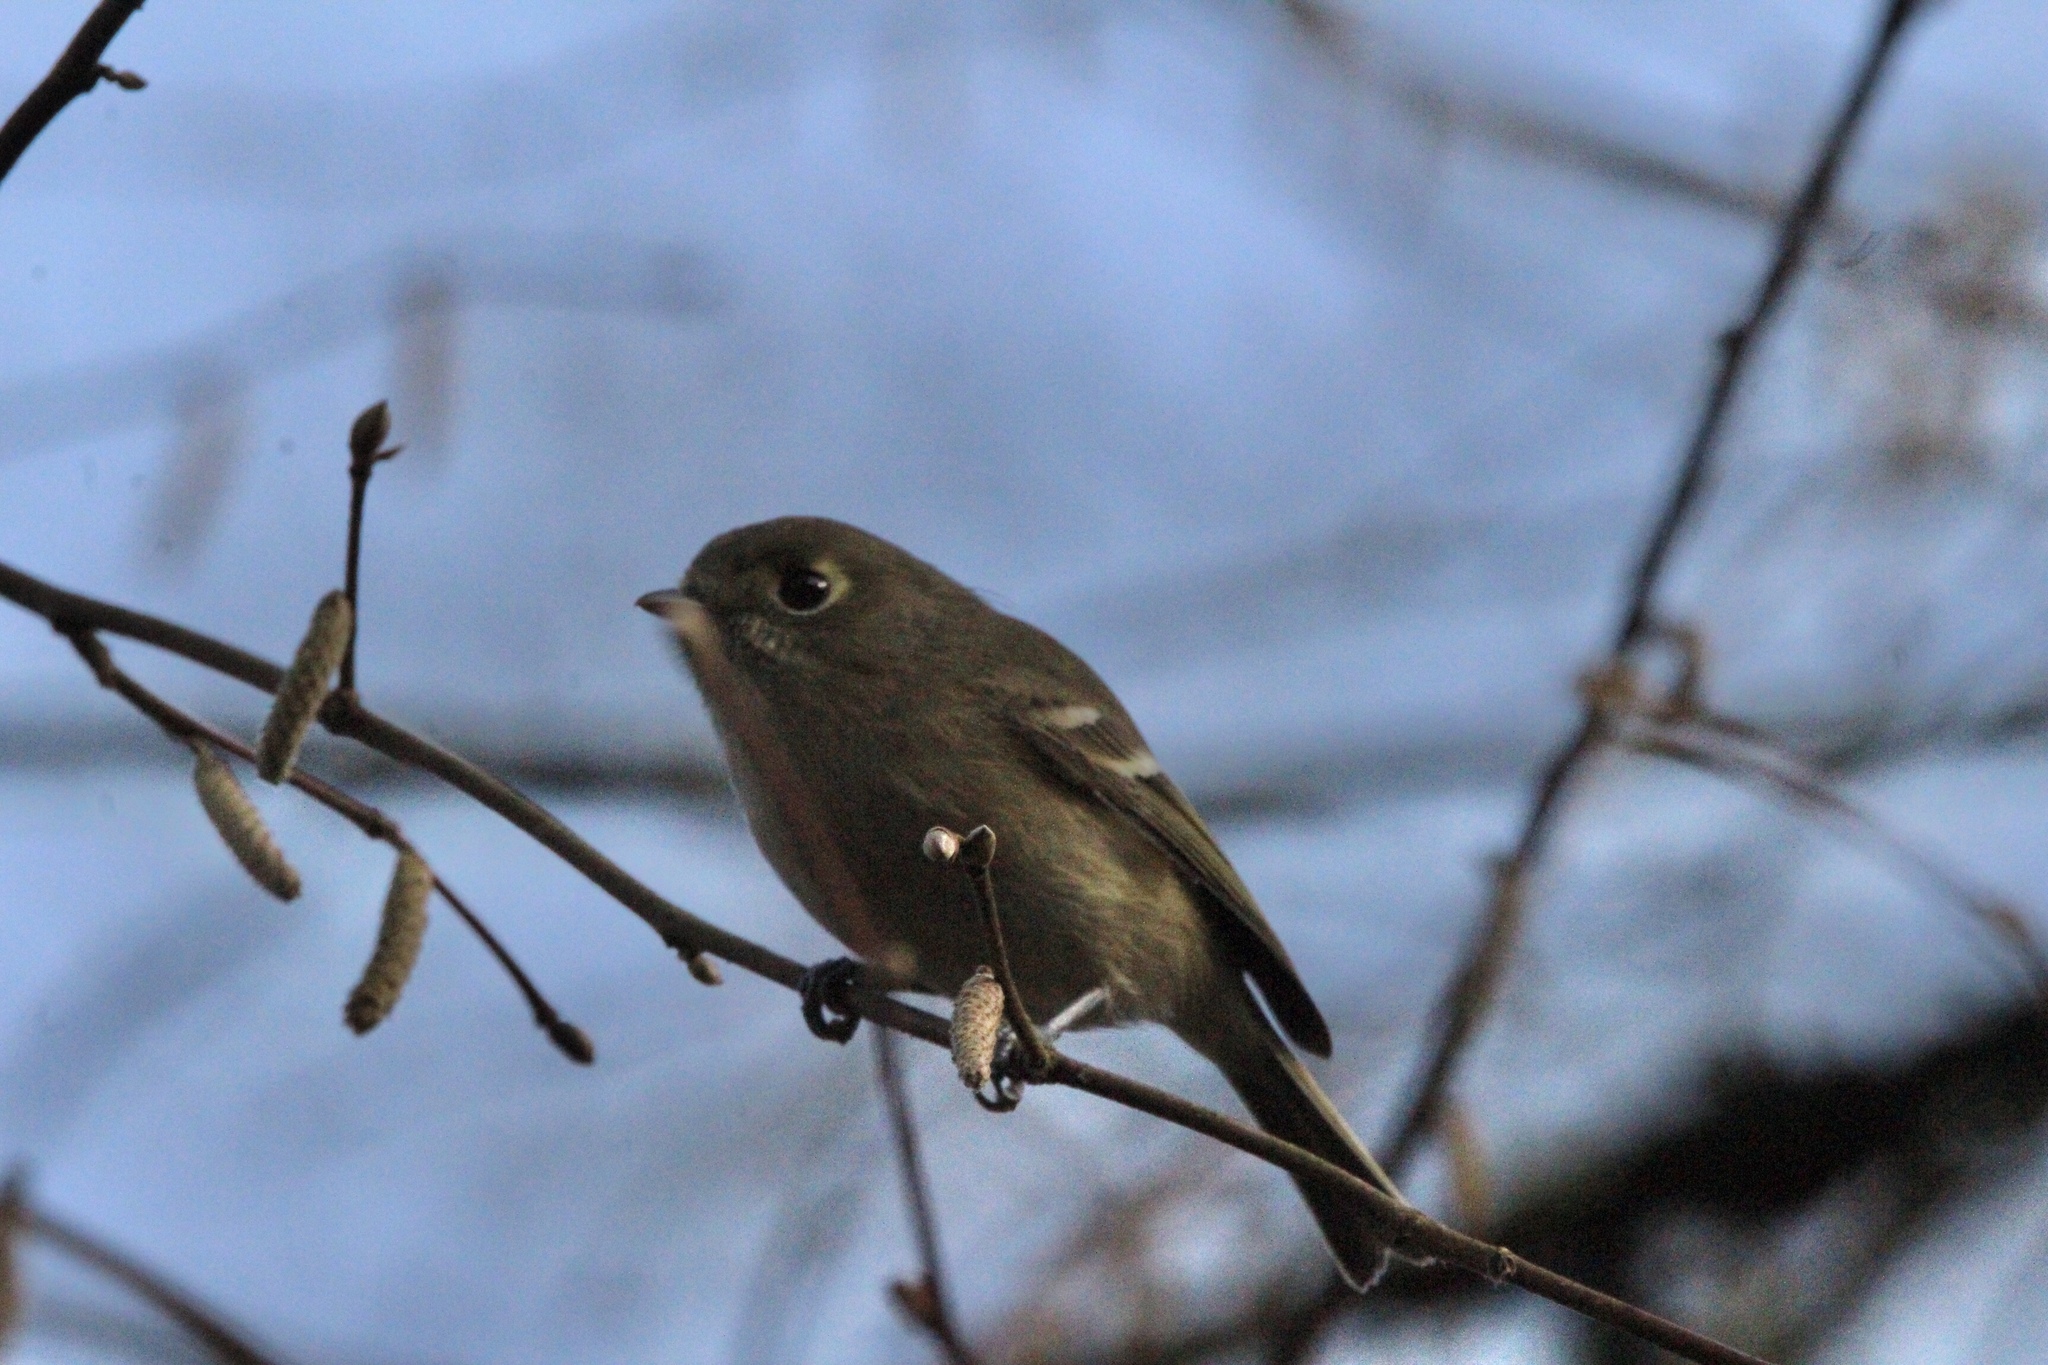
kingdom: Animalia
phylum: Chordata
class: Aves
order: Passeriformes
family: Vireonidae
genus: Vireo
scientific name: Vireo huttoni
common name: Hutton's vireo
